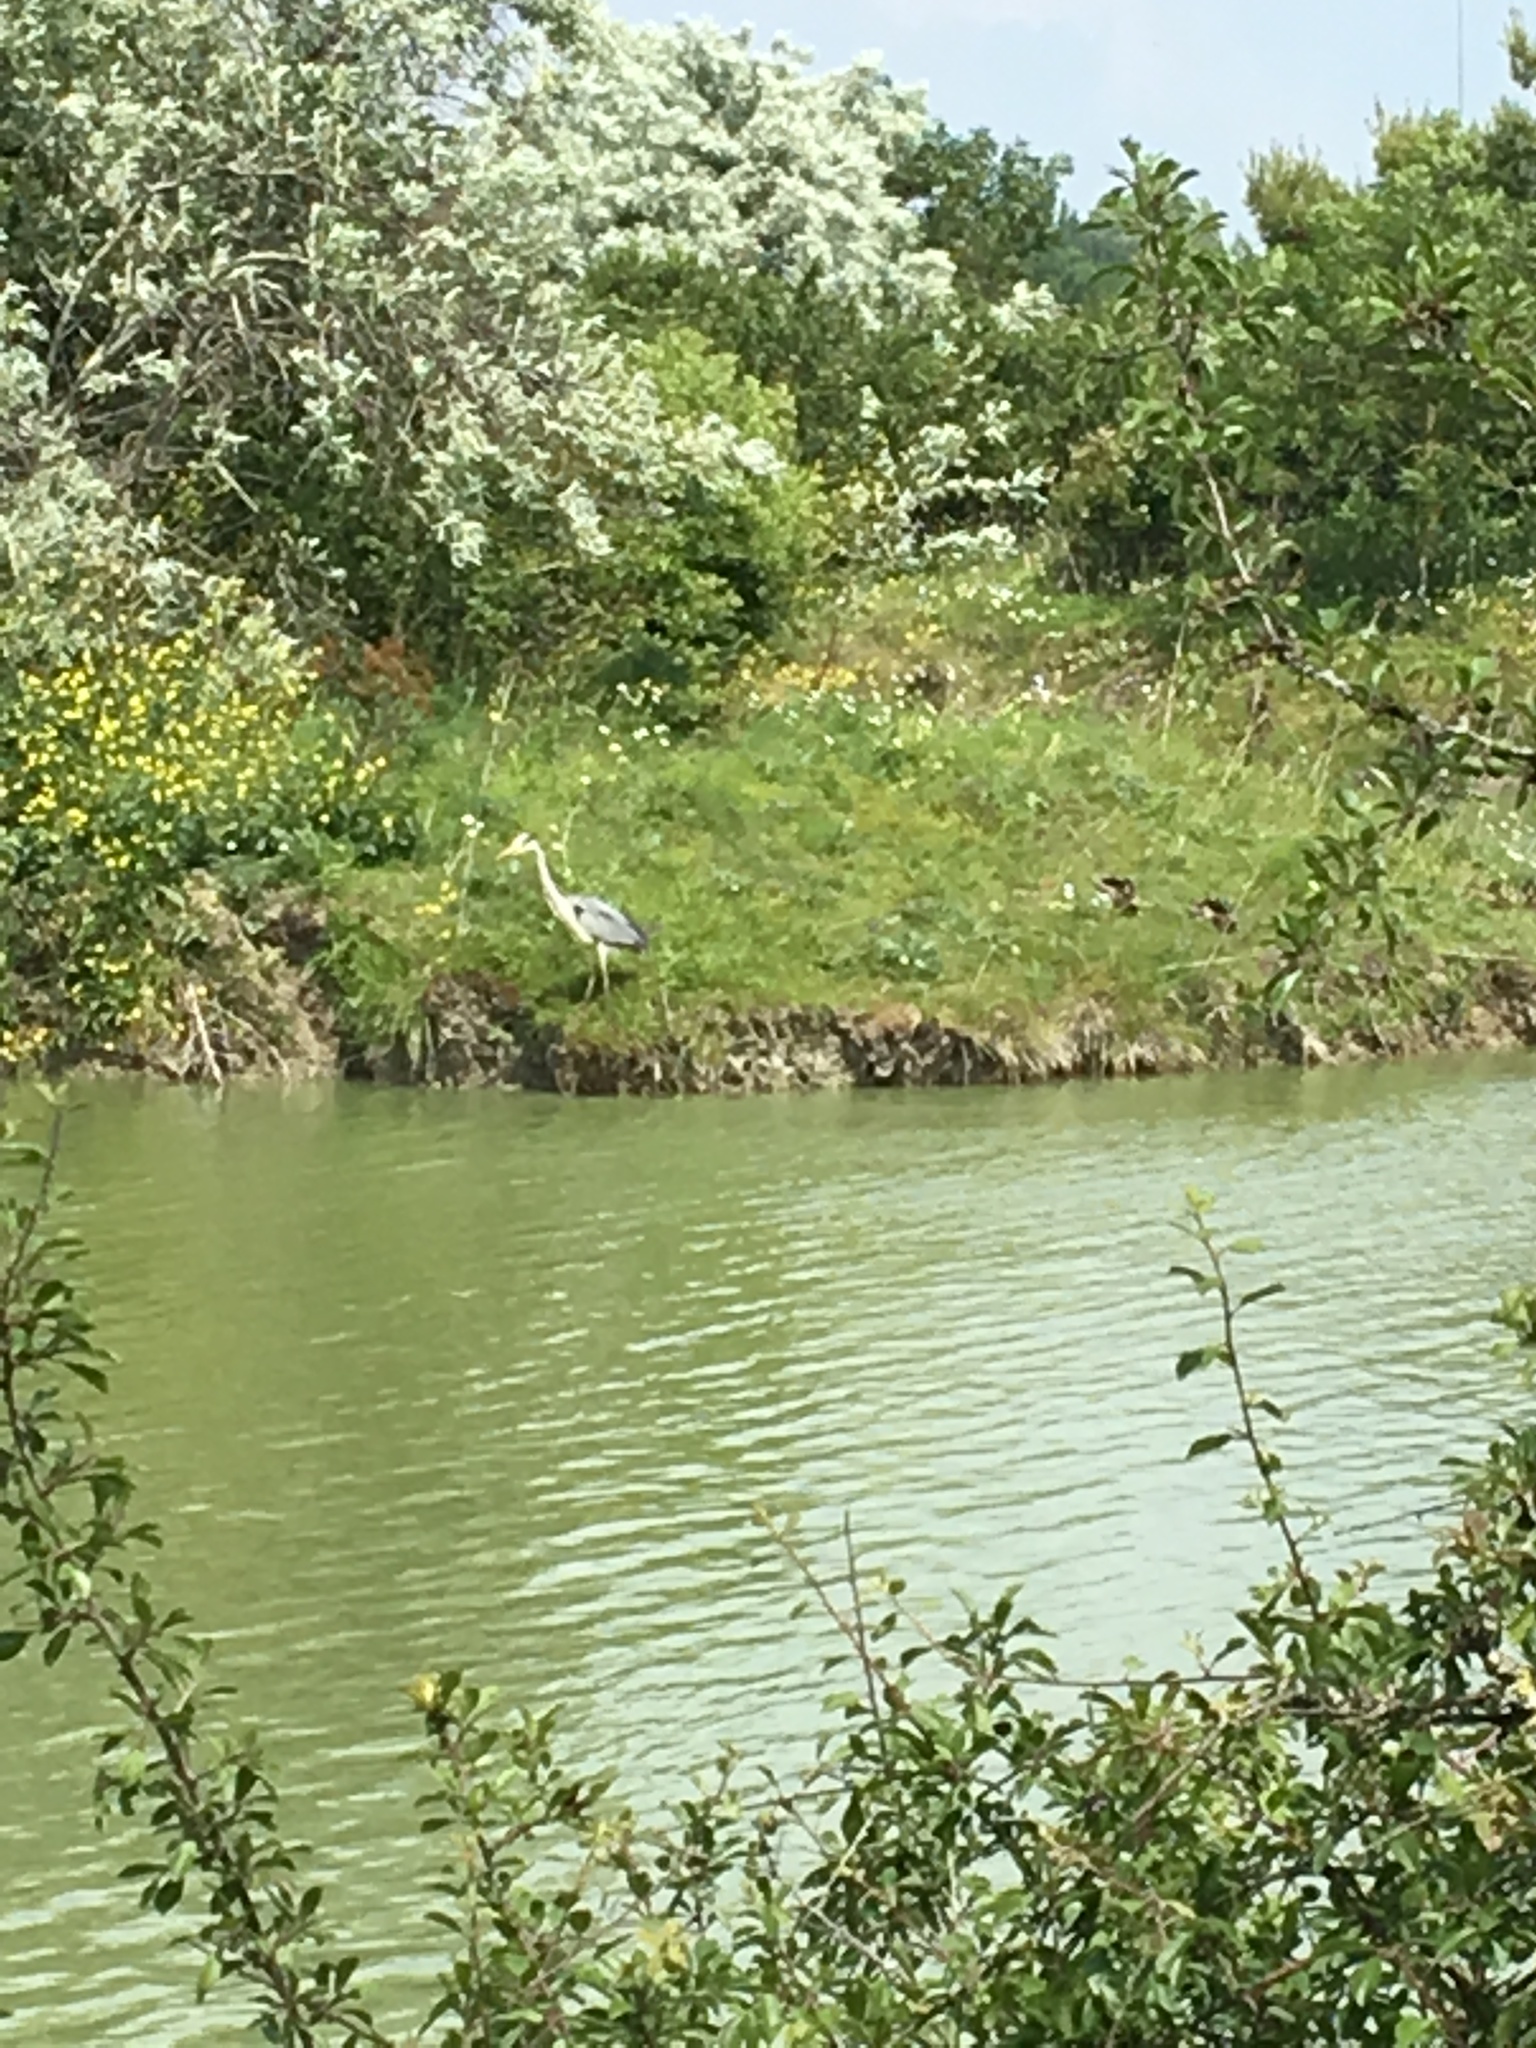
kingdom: Animalia
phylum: Chordata
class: Aves
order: Pelecaniformes
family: Ardeidae
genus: Ardea
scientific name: Ardea cinerea
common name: Grey heron
